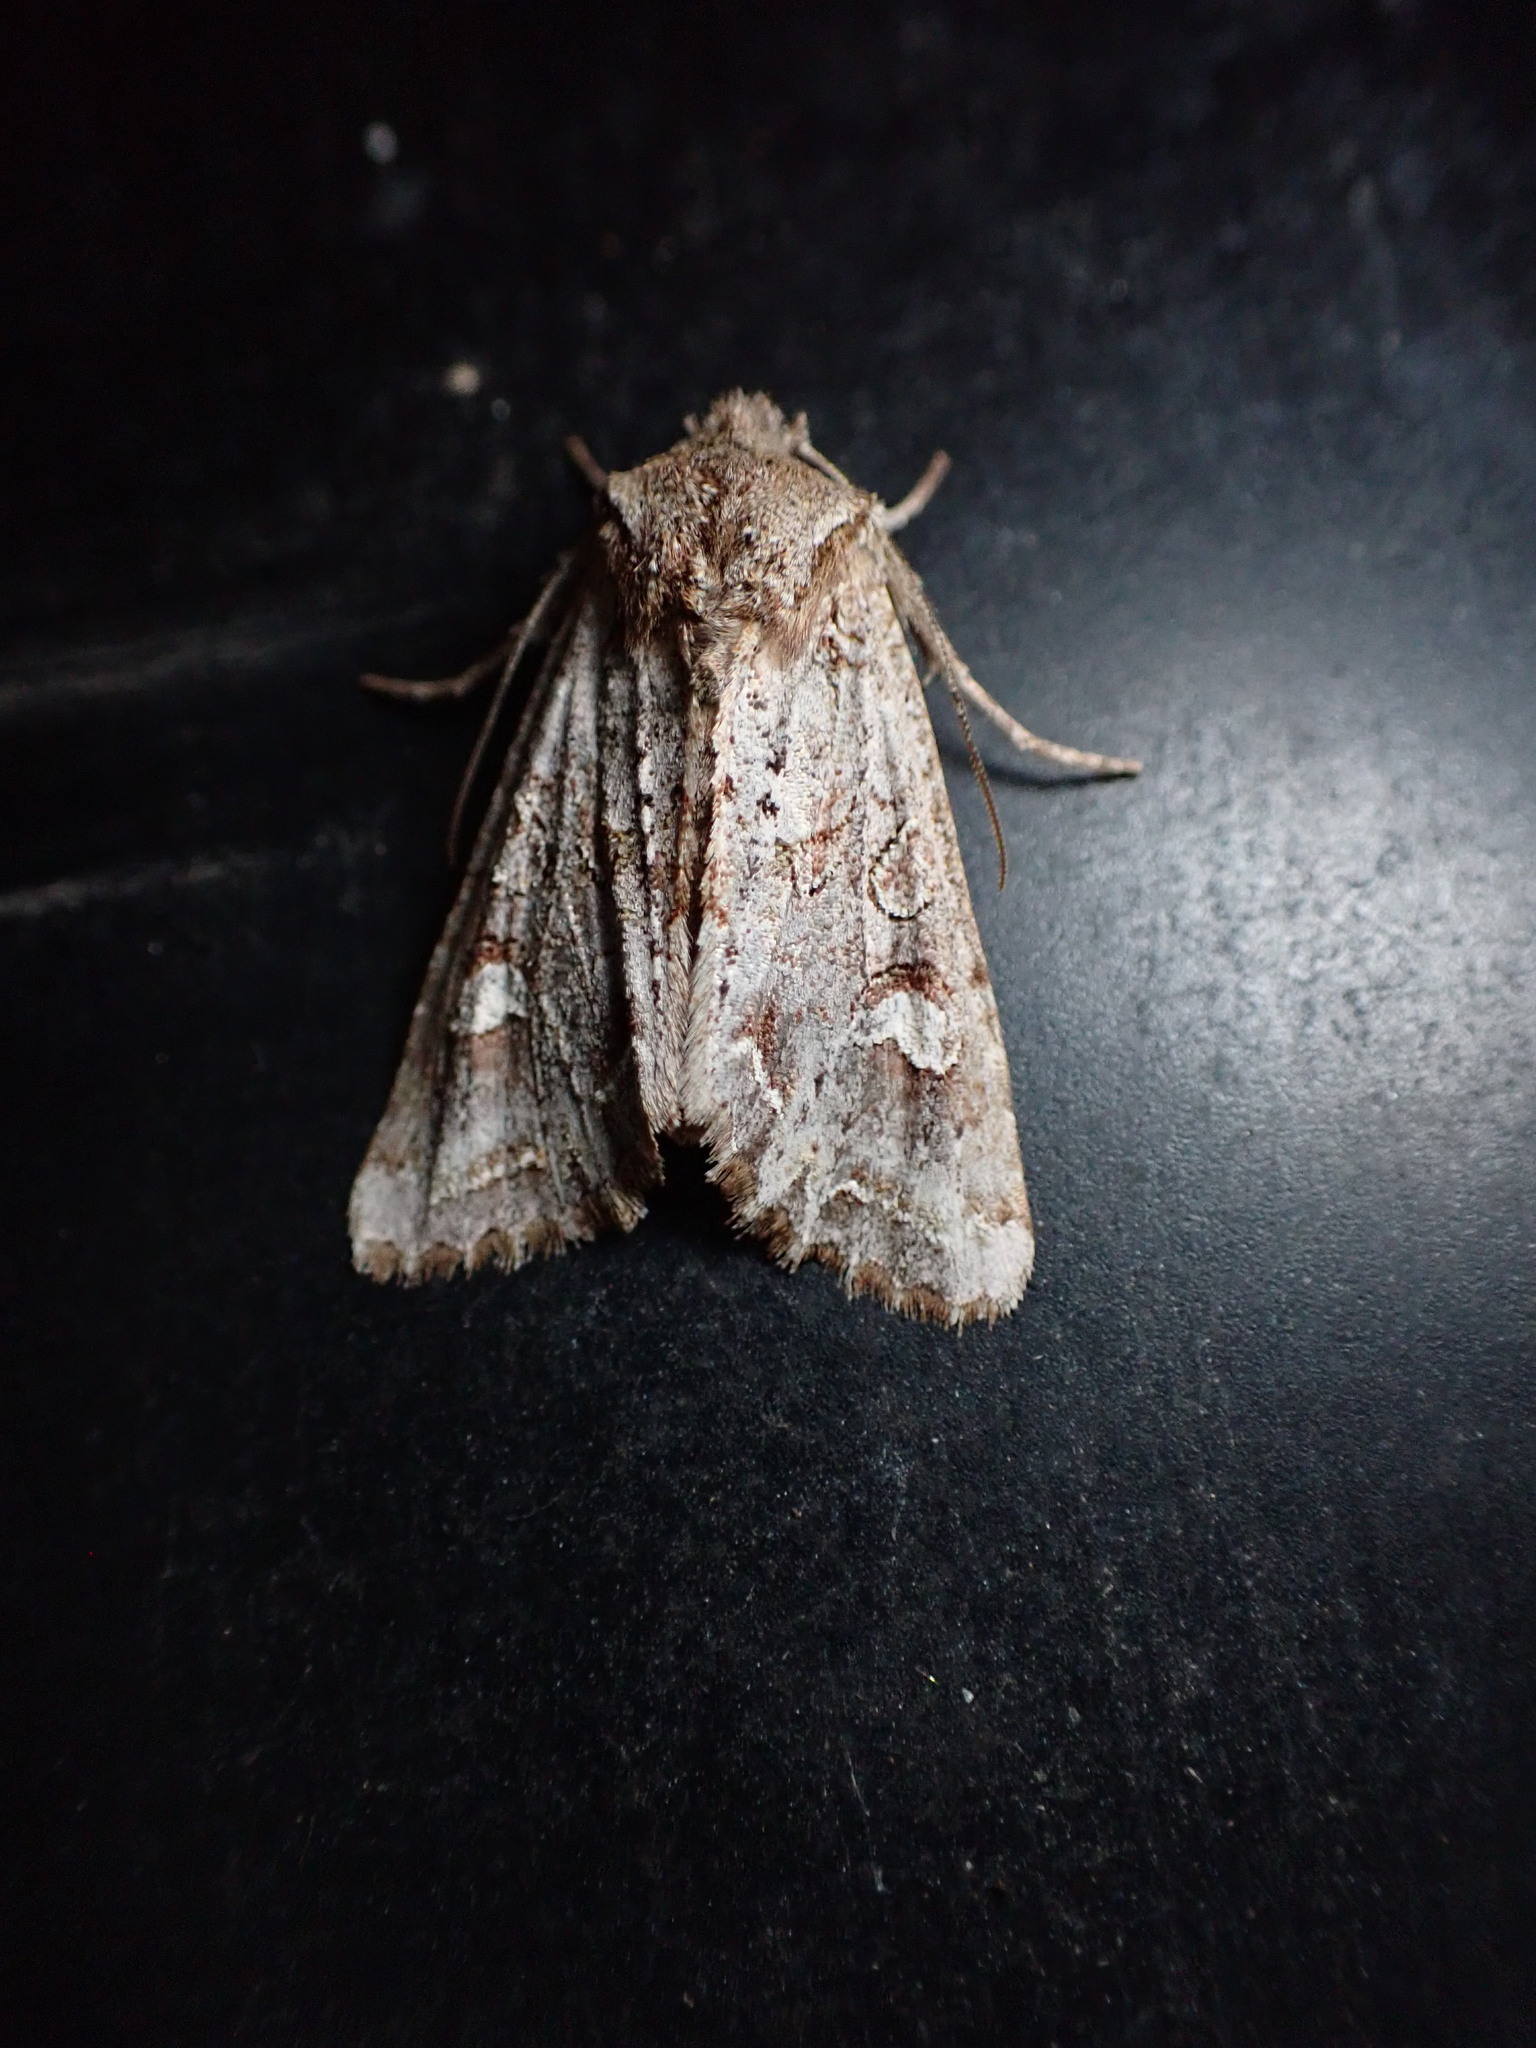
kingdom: Animalia
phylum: Arthropoda
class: Insecta
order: Lepidoptera
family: Noctuidae
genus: Ichneutica
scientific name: Ichneutica
